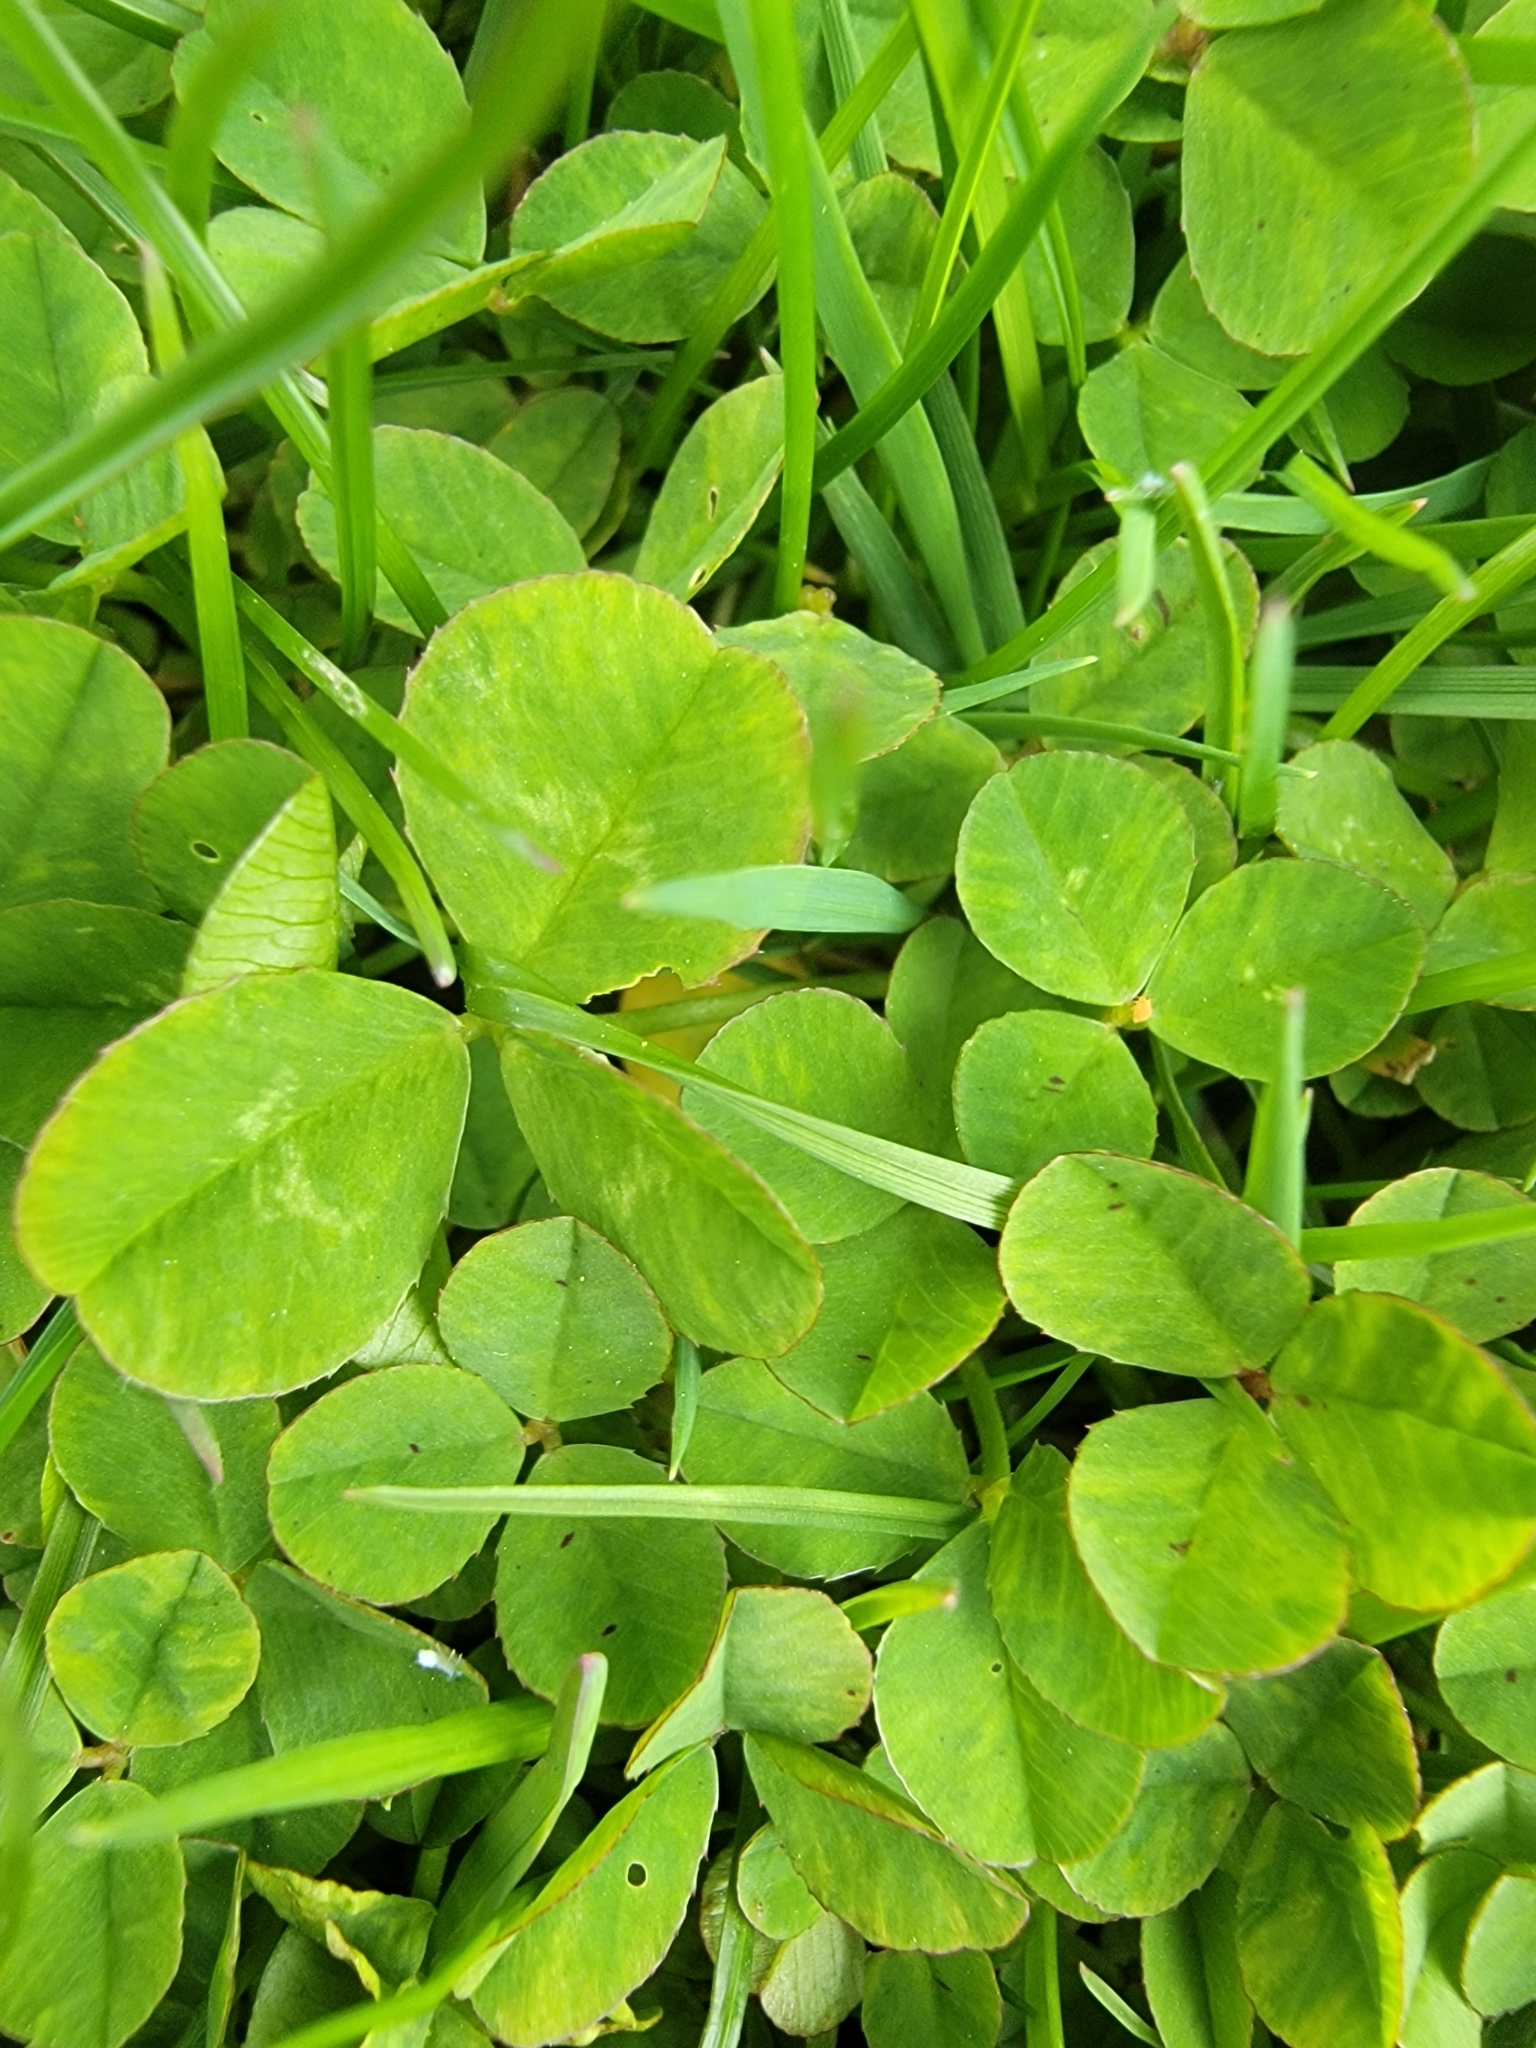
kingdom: Plantae
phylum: Tracheophyta
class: Magnoliopsida
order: Fabales
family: Fabaceae
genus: Trifolium
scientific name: Trifolium repens
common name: White clover
